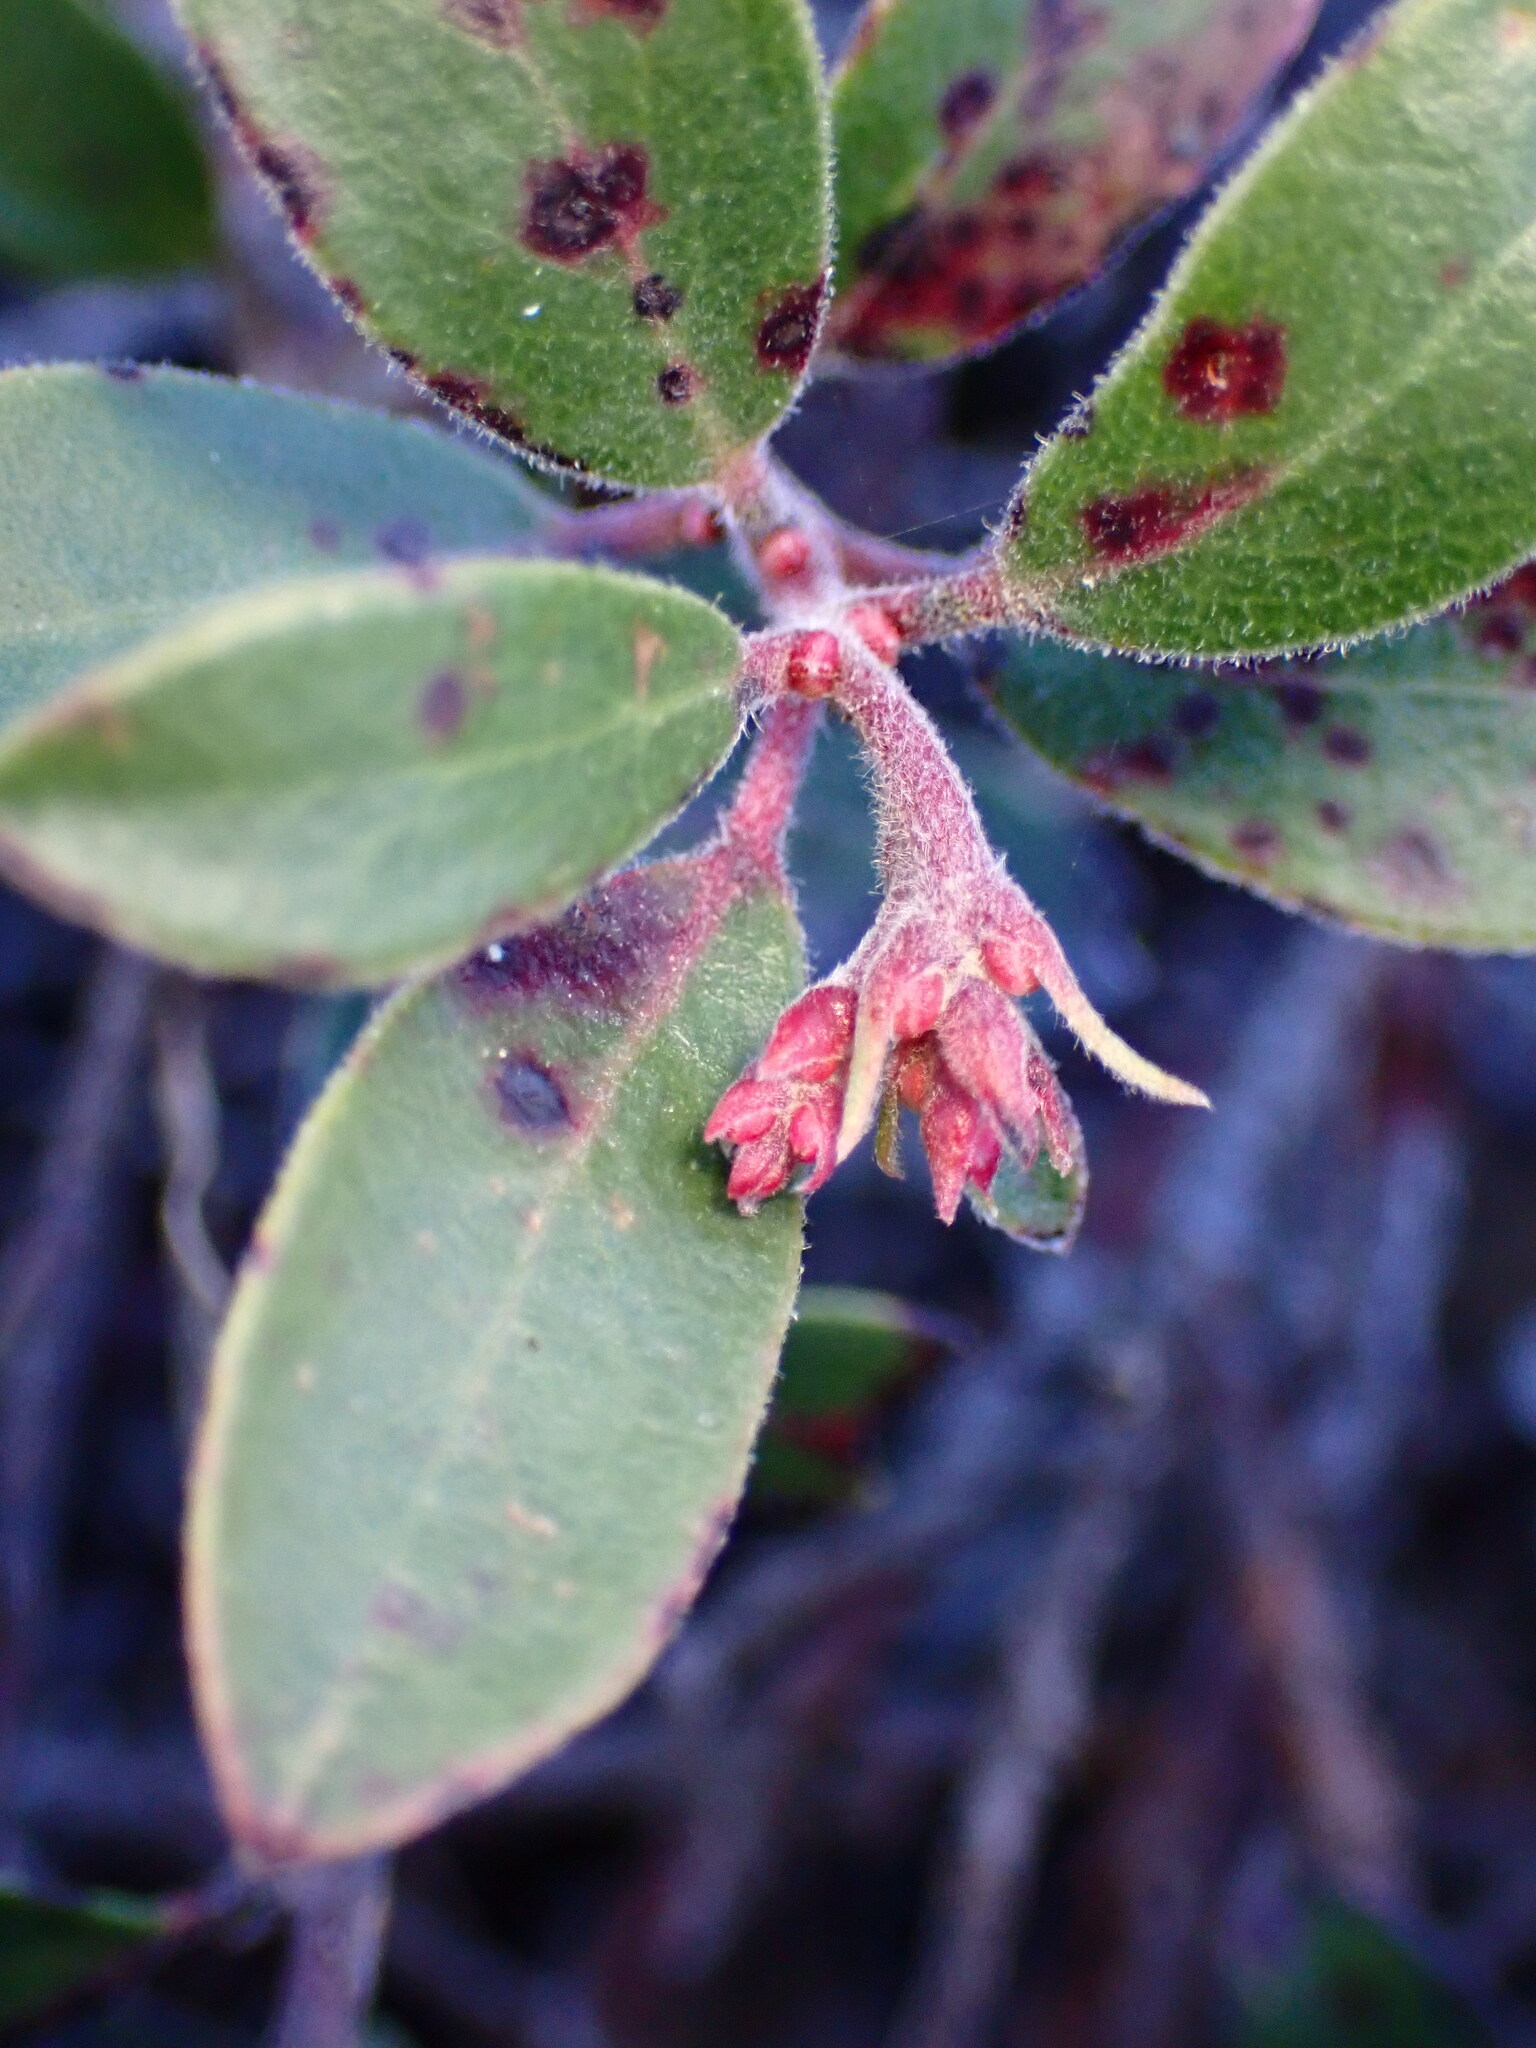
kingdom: Plantae
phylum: Tracheophyta
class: Magnoliopsida
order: Ericales
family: Ericaceae
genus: Arctostaphylos
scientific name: Arctostaphylos uva-ursi
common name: Bearberry
